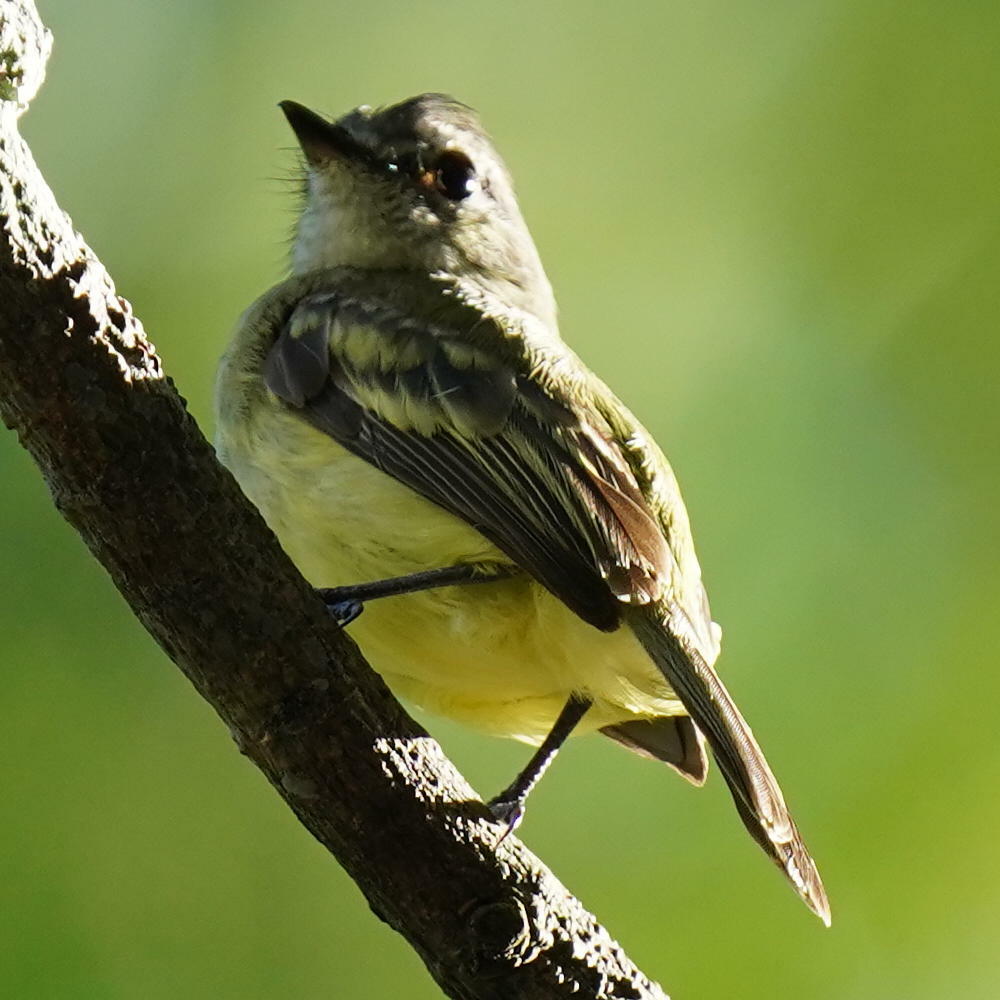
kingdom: Animalia
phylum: Chordata
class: Aves
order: Passeriformes
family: Tyrannidae
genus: Tyrannulus
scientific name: Tyrannulus elatus
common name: Yellow-crowned tyrannulet
